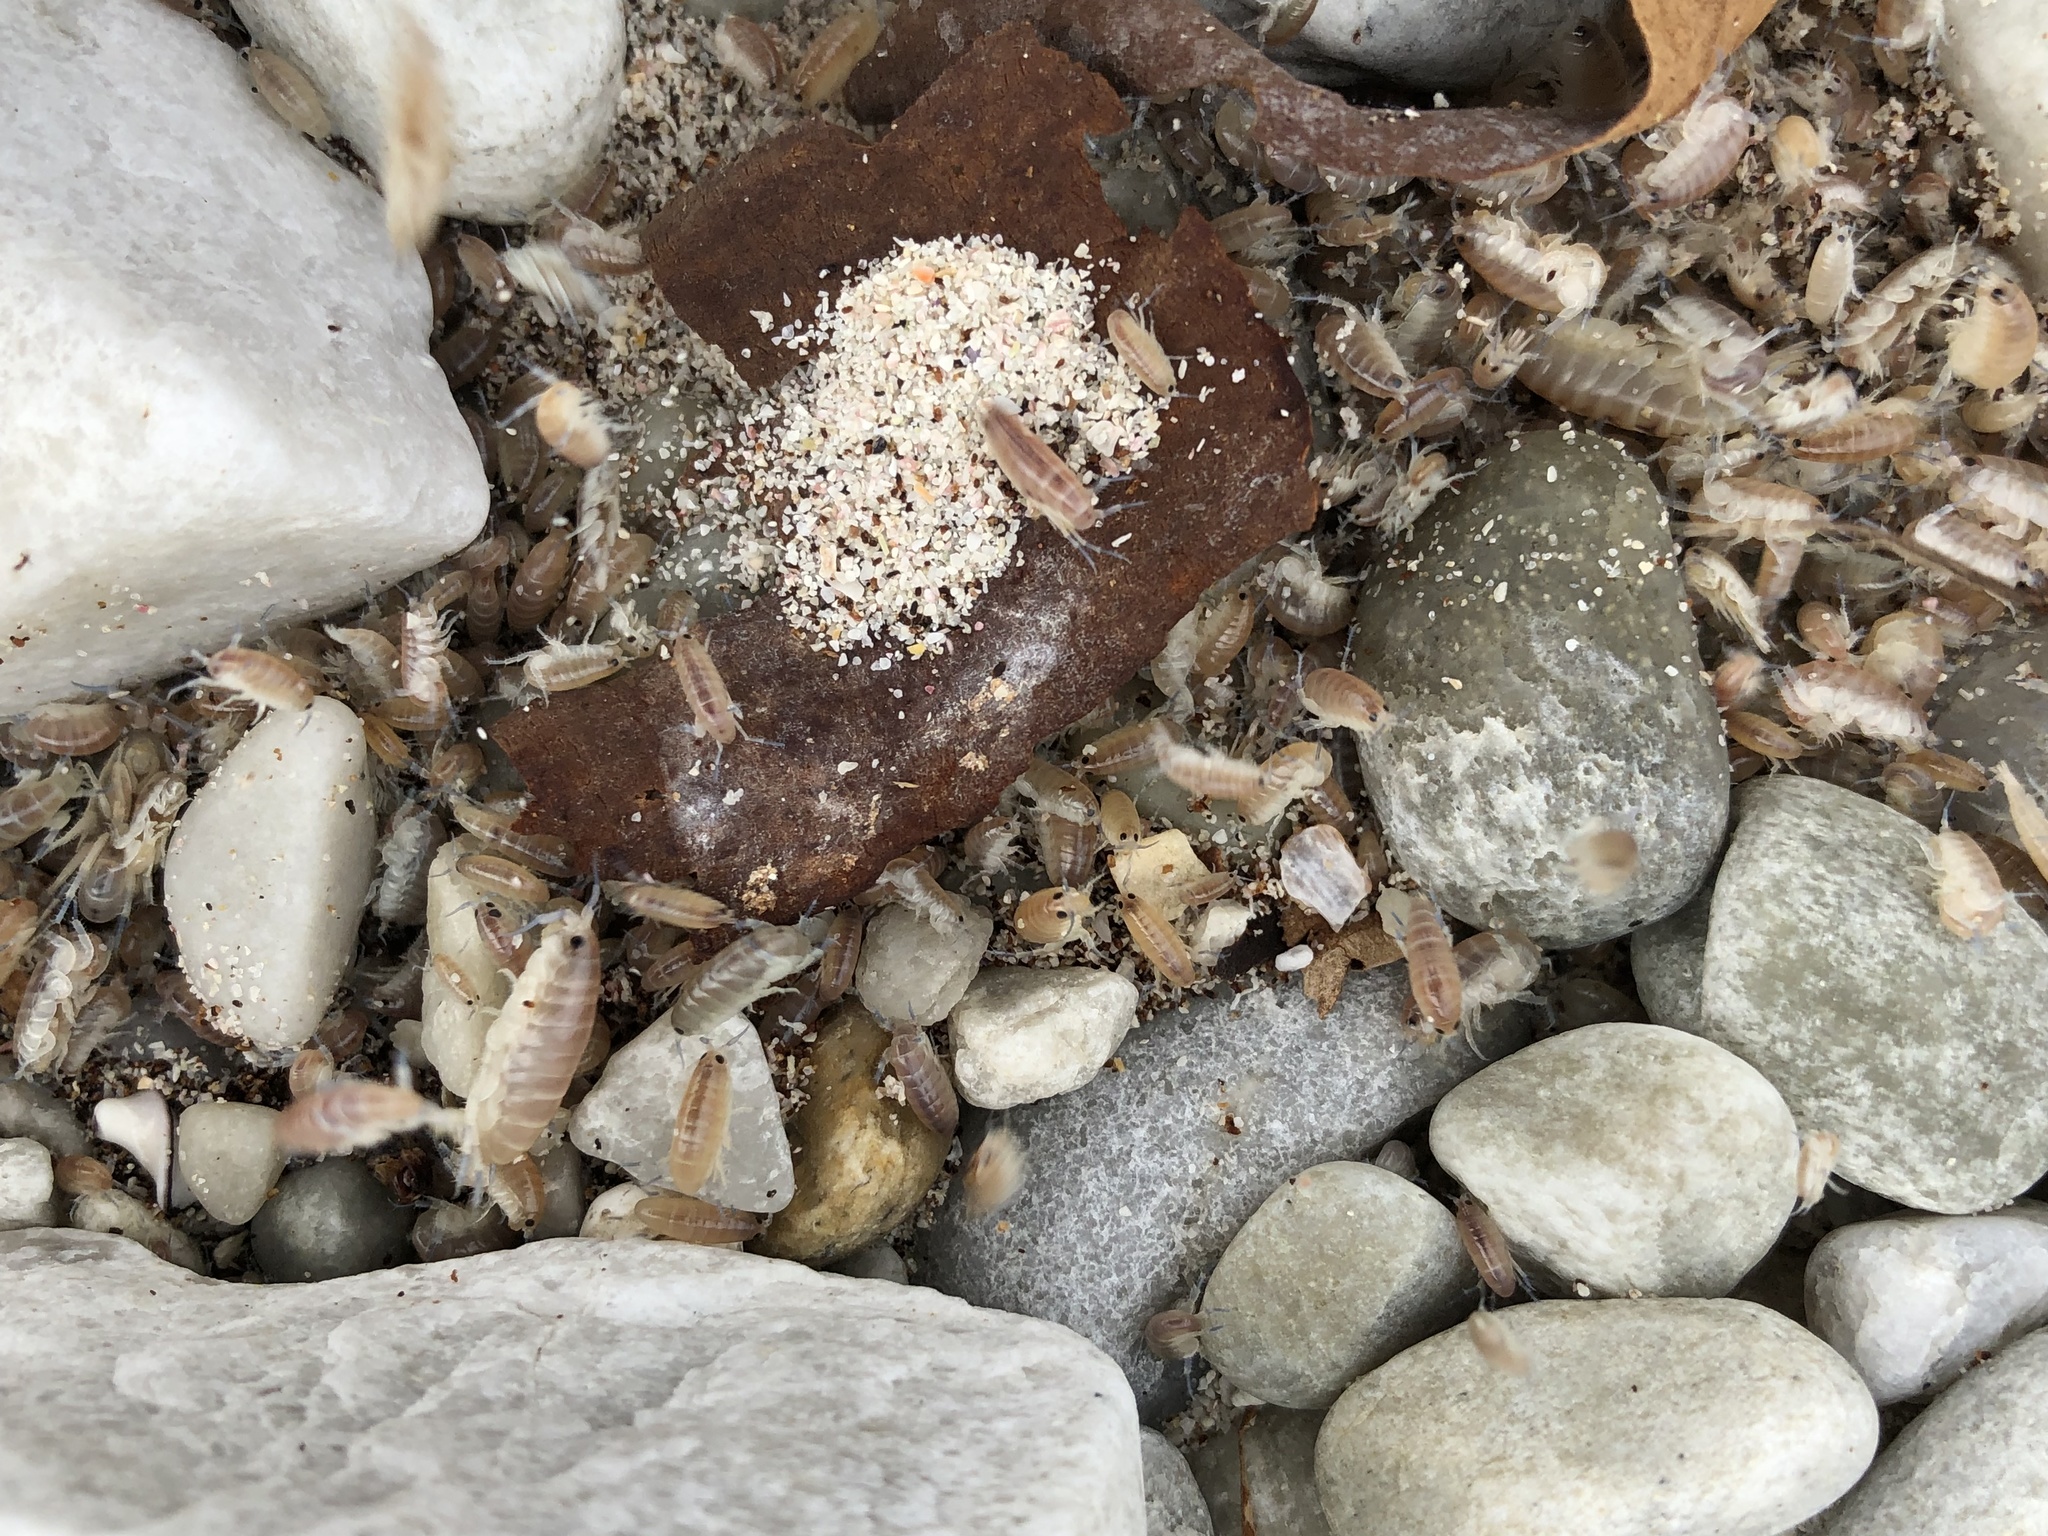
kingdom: Animalia
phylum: Arthropoda
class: Malacostraca
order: Amphipoda
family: Talitridae
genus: Capeorchestia
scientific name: Capeorchestia capensis
